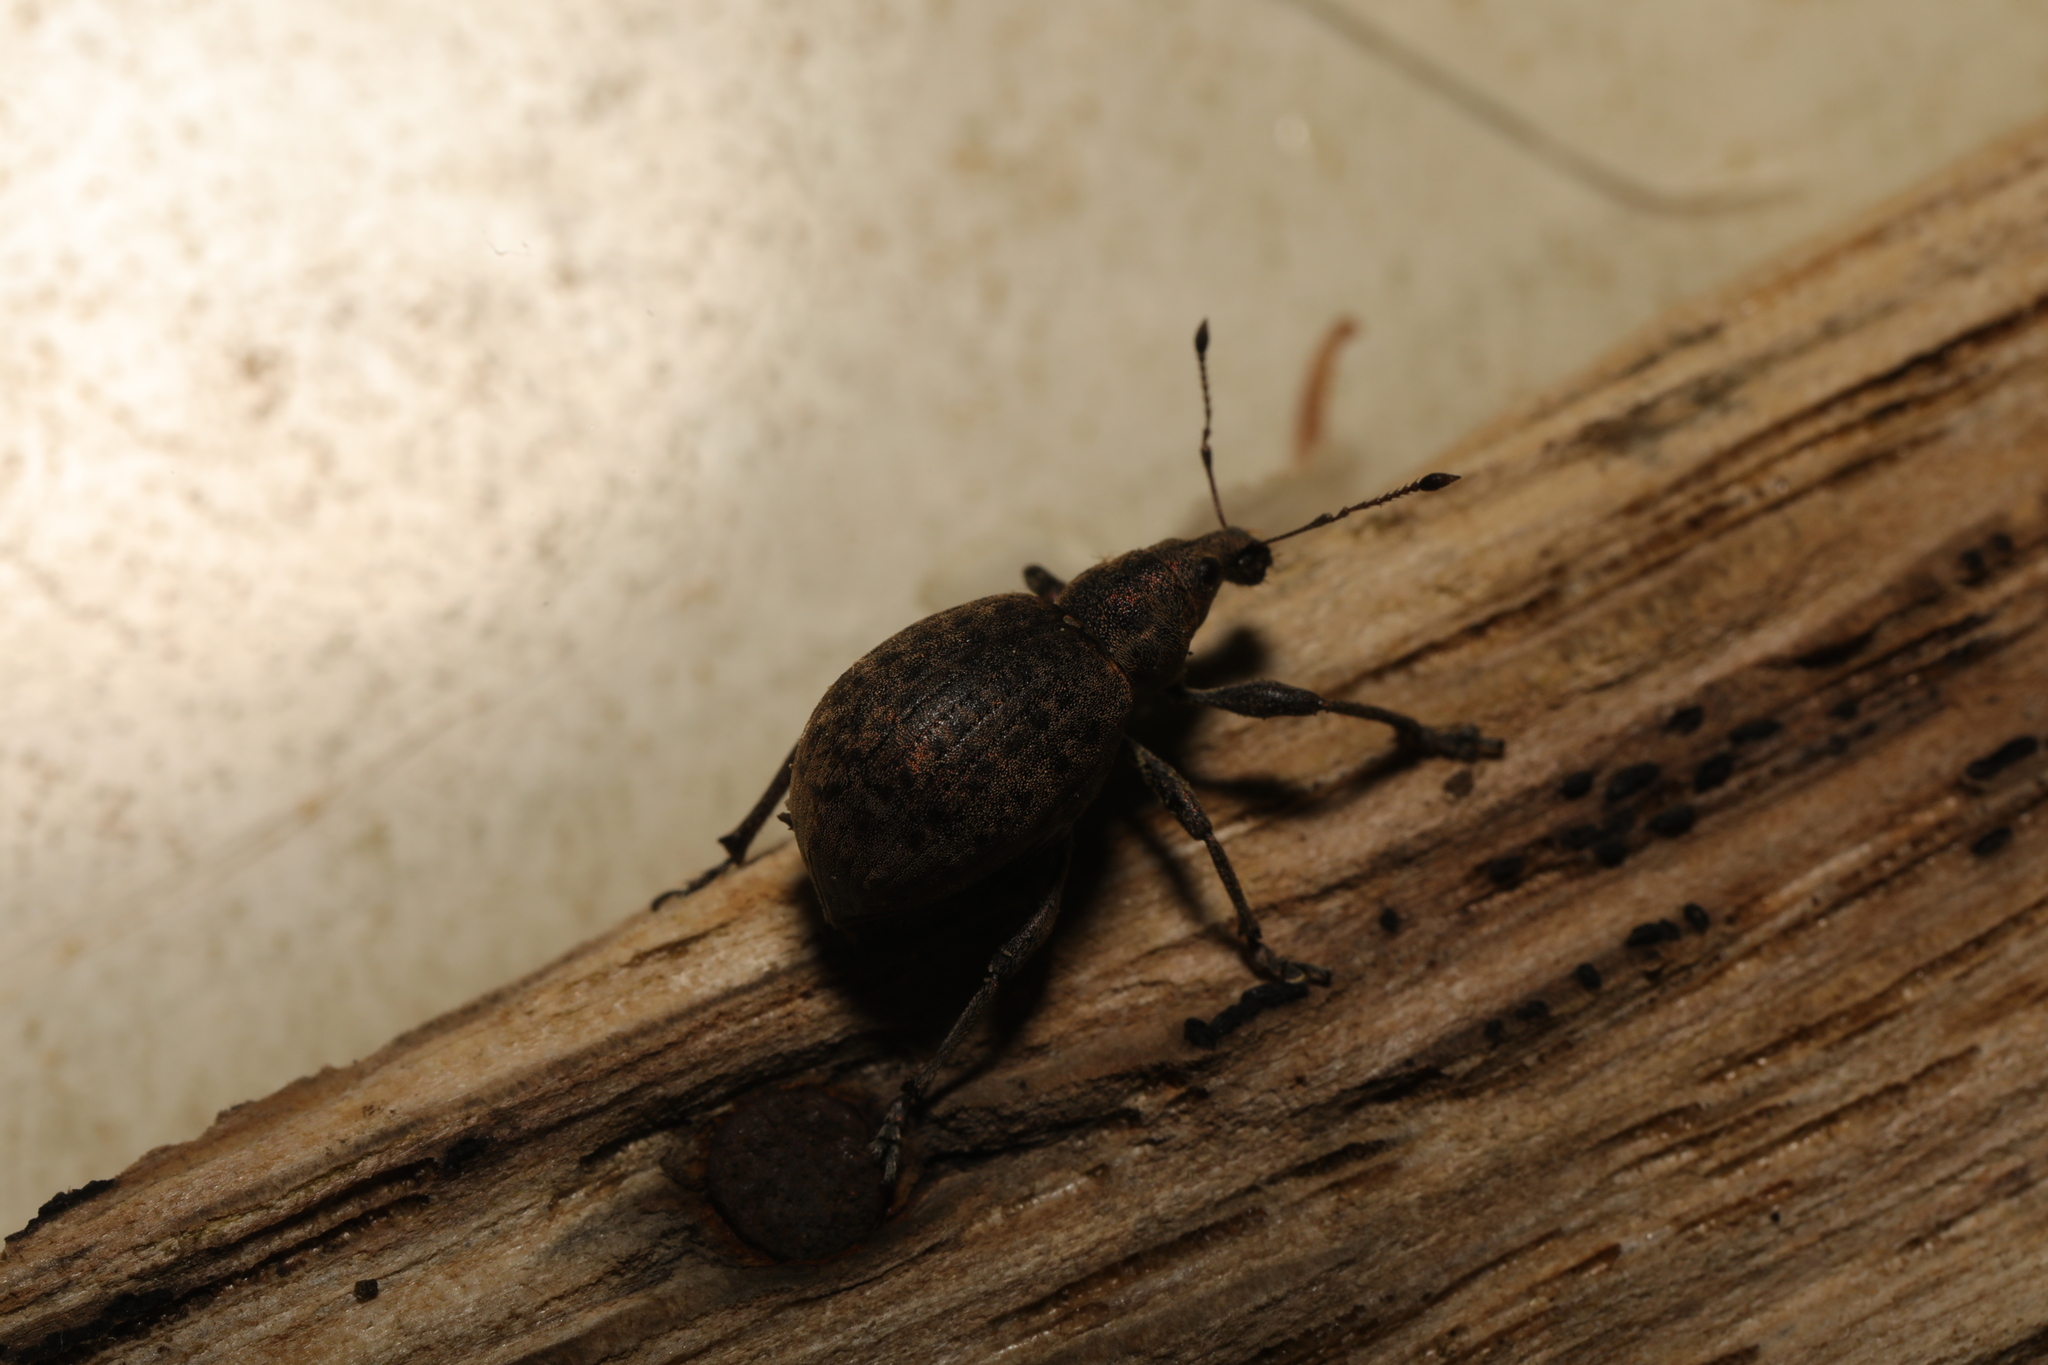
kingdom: Animalia
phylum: Arthropoda
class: Insecta
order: Coleoptera
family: Curculionidae
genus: Liophloeus
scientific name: Liophloeus tessulatus
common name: Weevil
